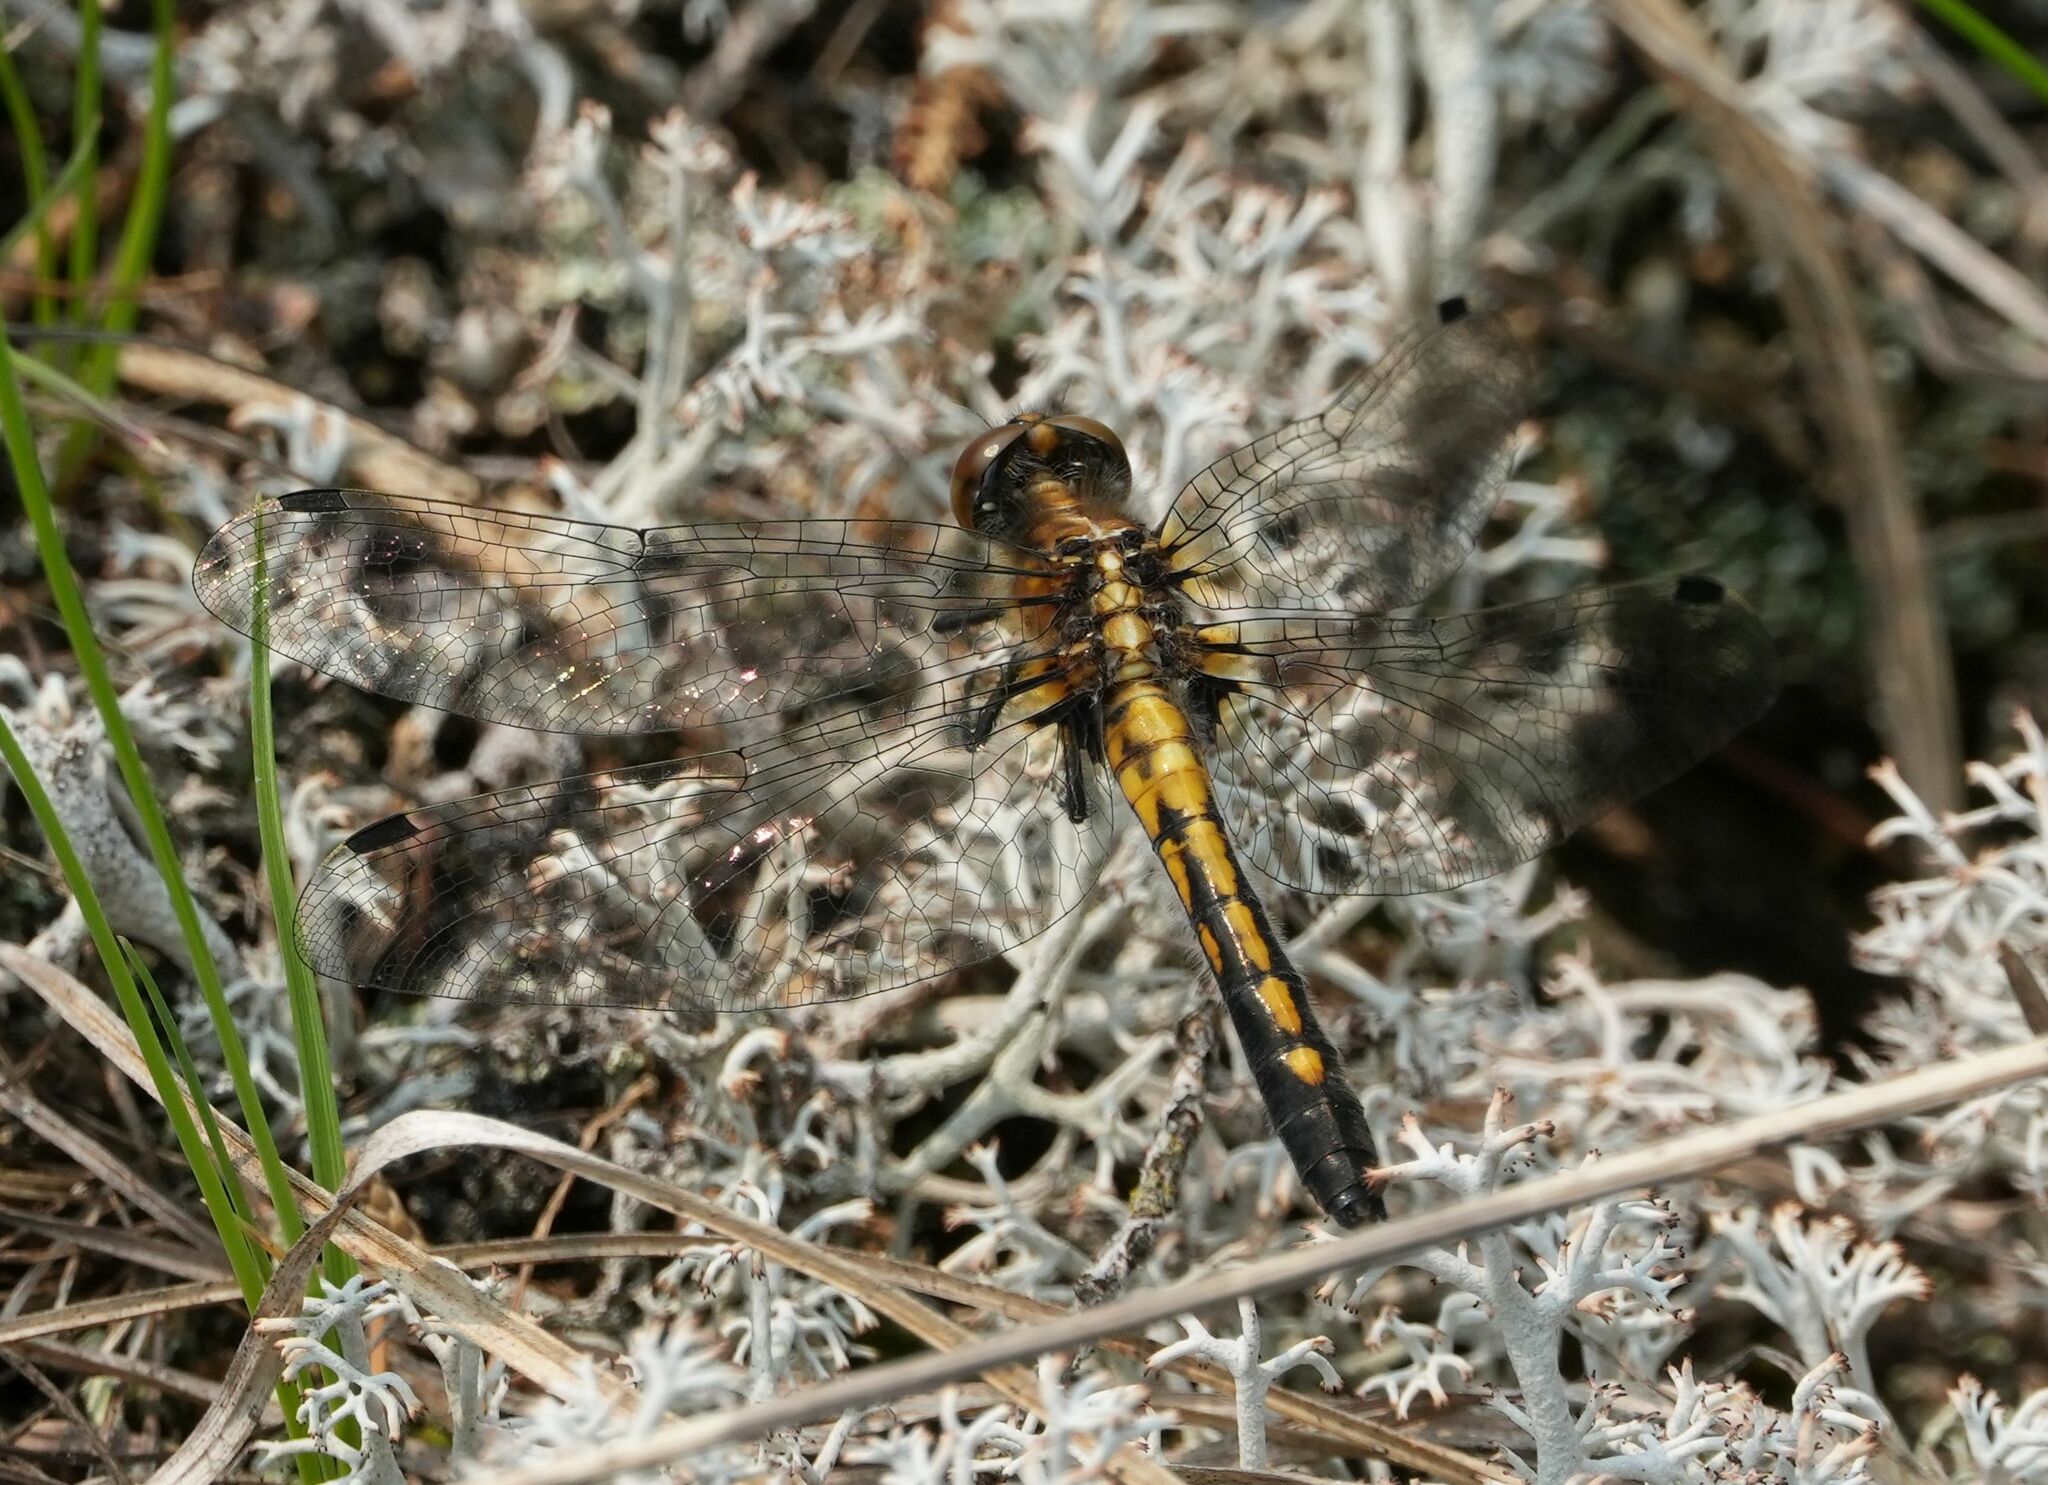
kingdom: Animalia
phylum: Arthropoda
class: Insecta
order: Odonata
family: Libellulidae
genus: Leucorrhinia
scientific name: Leucorrhinia intacta
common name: Dot-tailed whiteface
